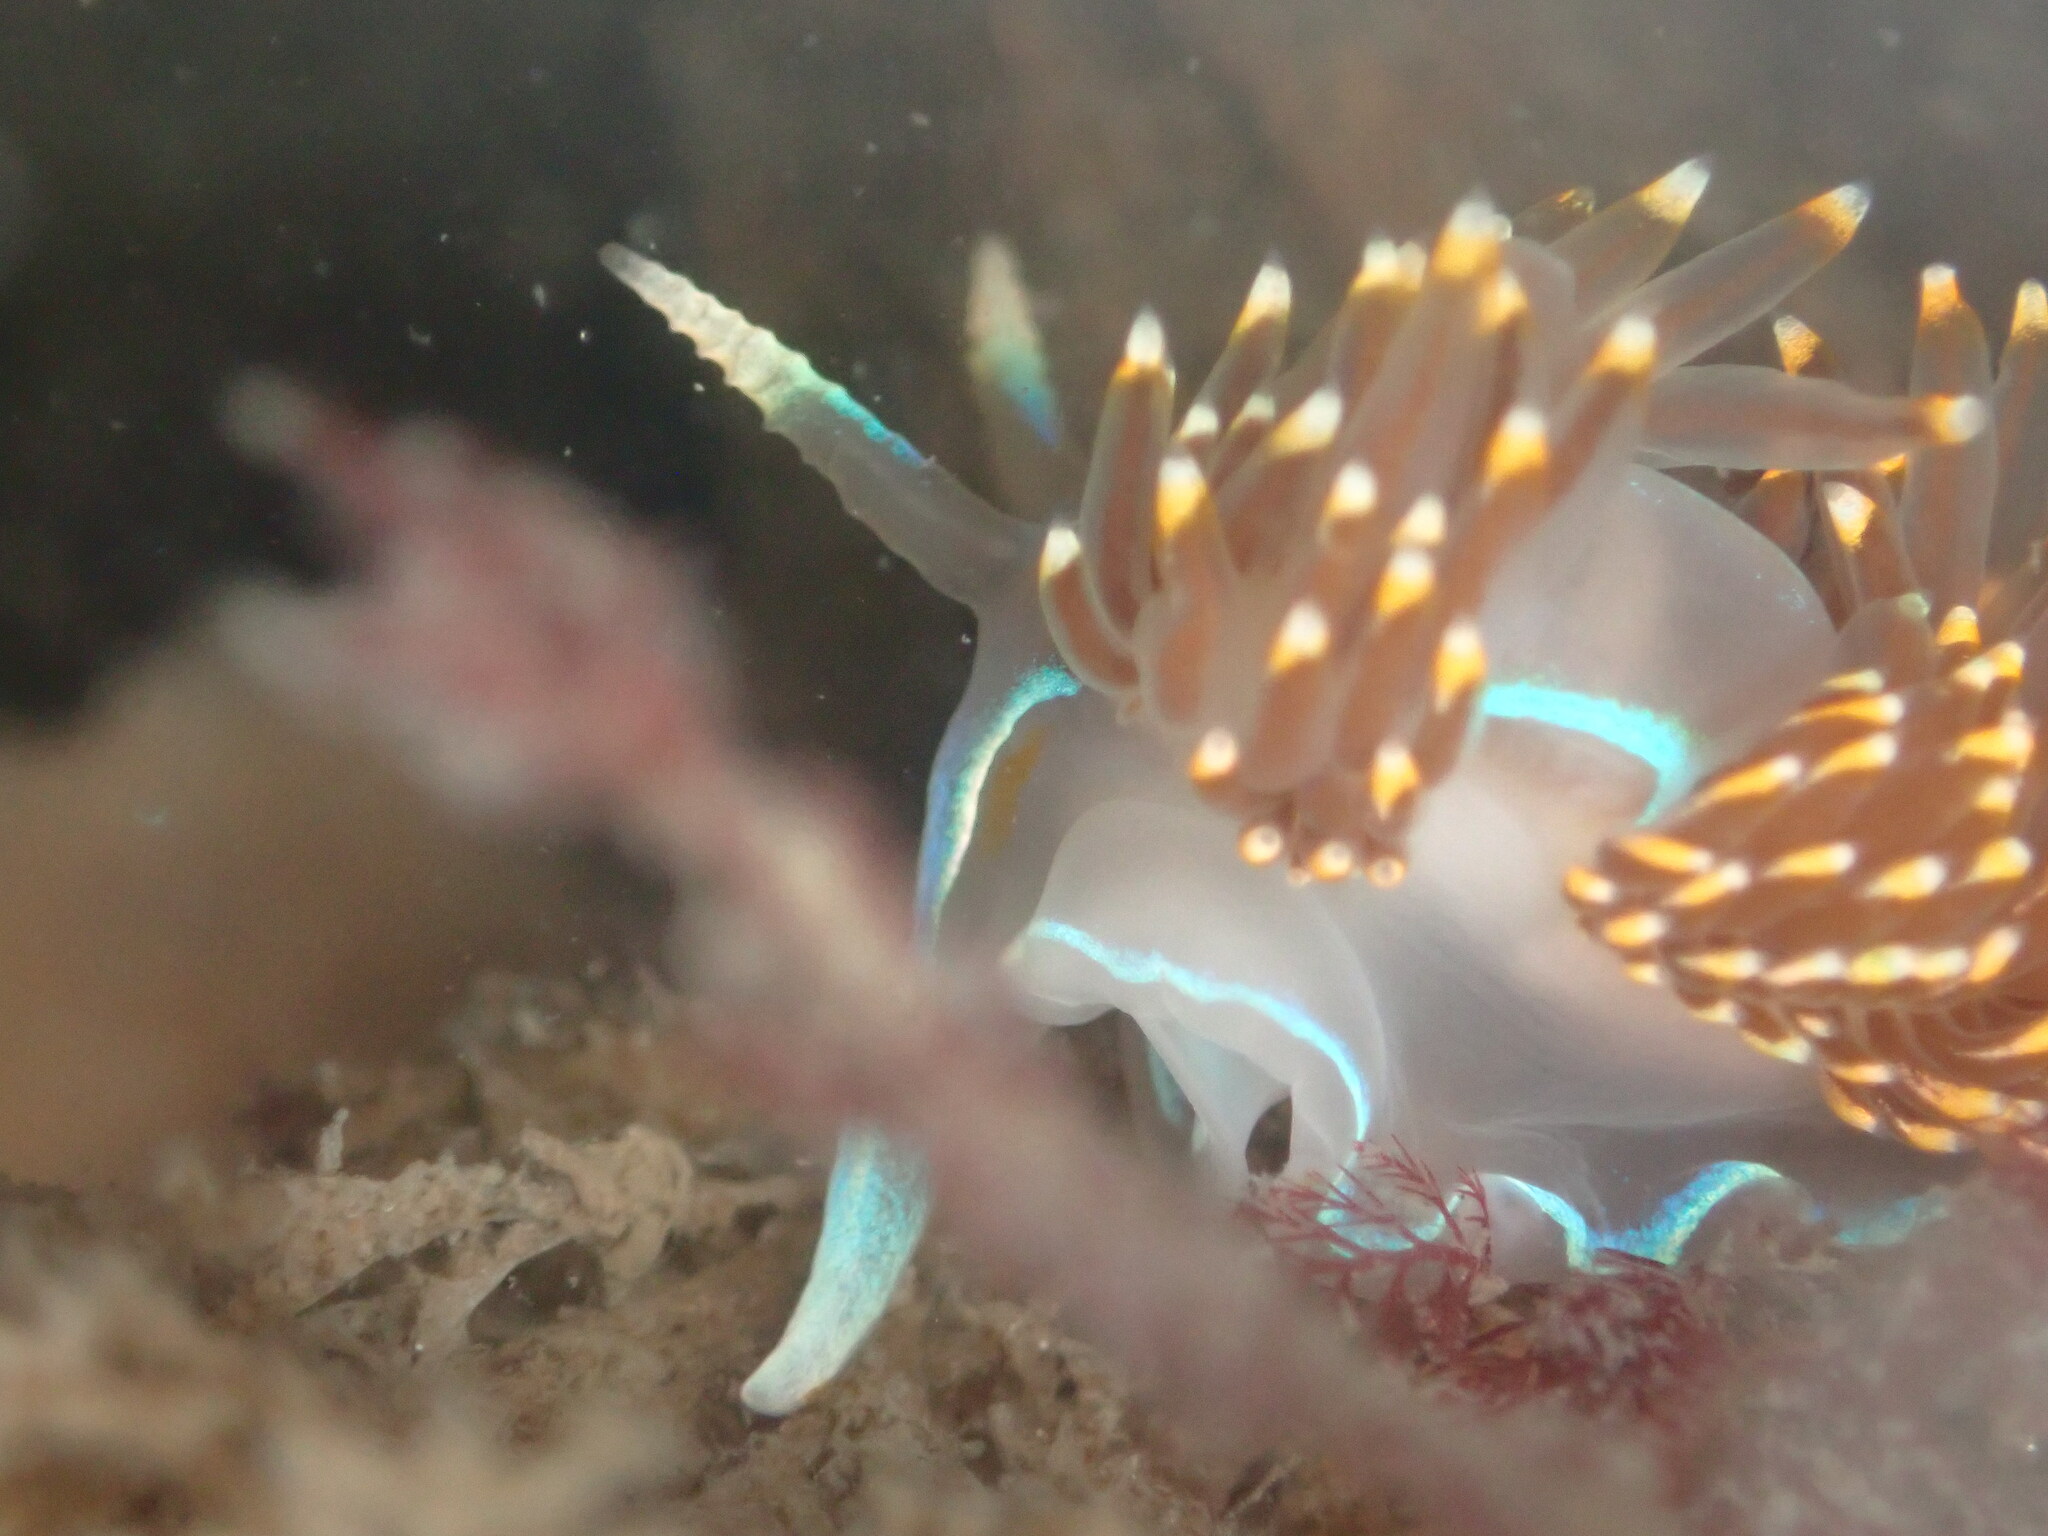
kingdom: Animalia
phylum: Mollusca
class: Gastropoda
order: Nudibranchia
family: Myrrhinidae
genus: Hermissenda
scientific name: Hermissenda opalescens
